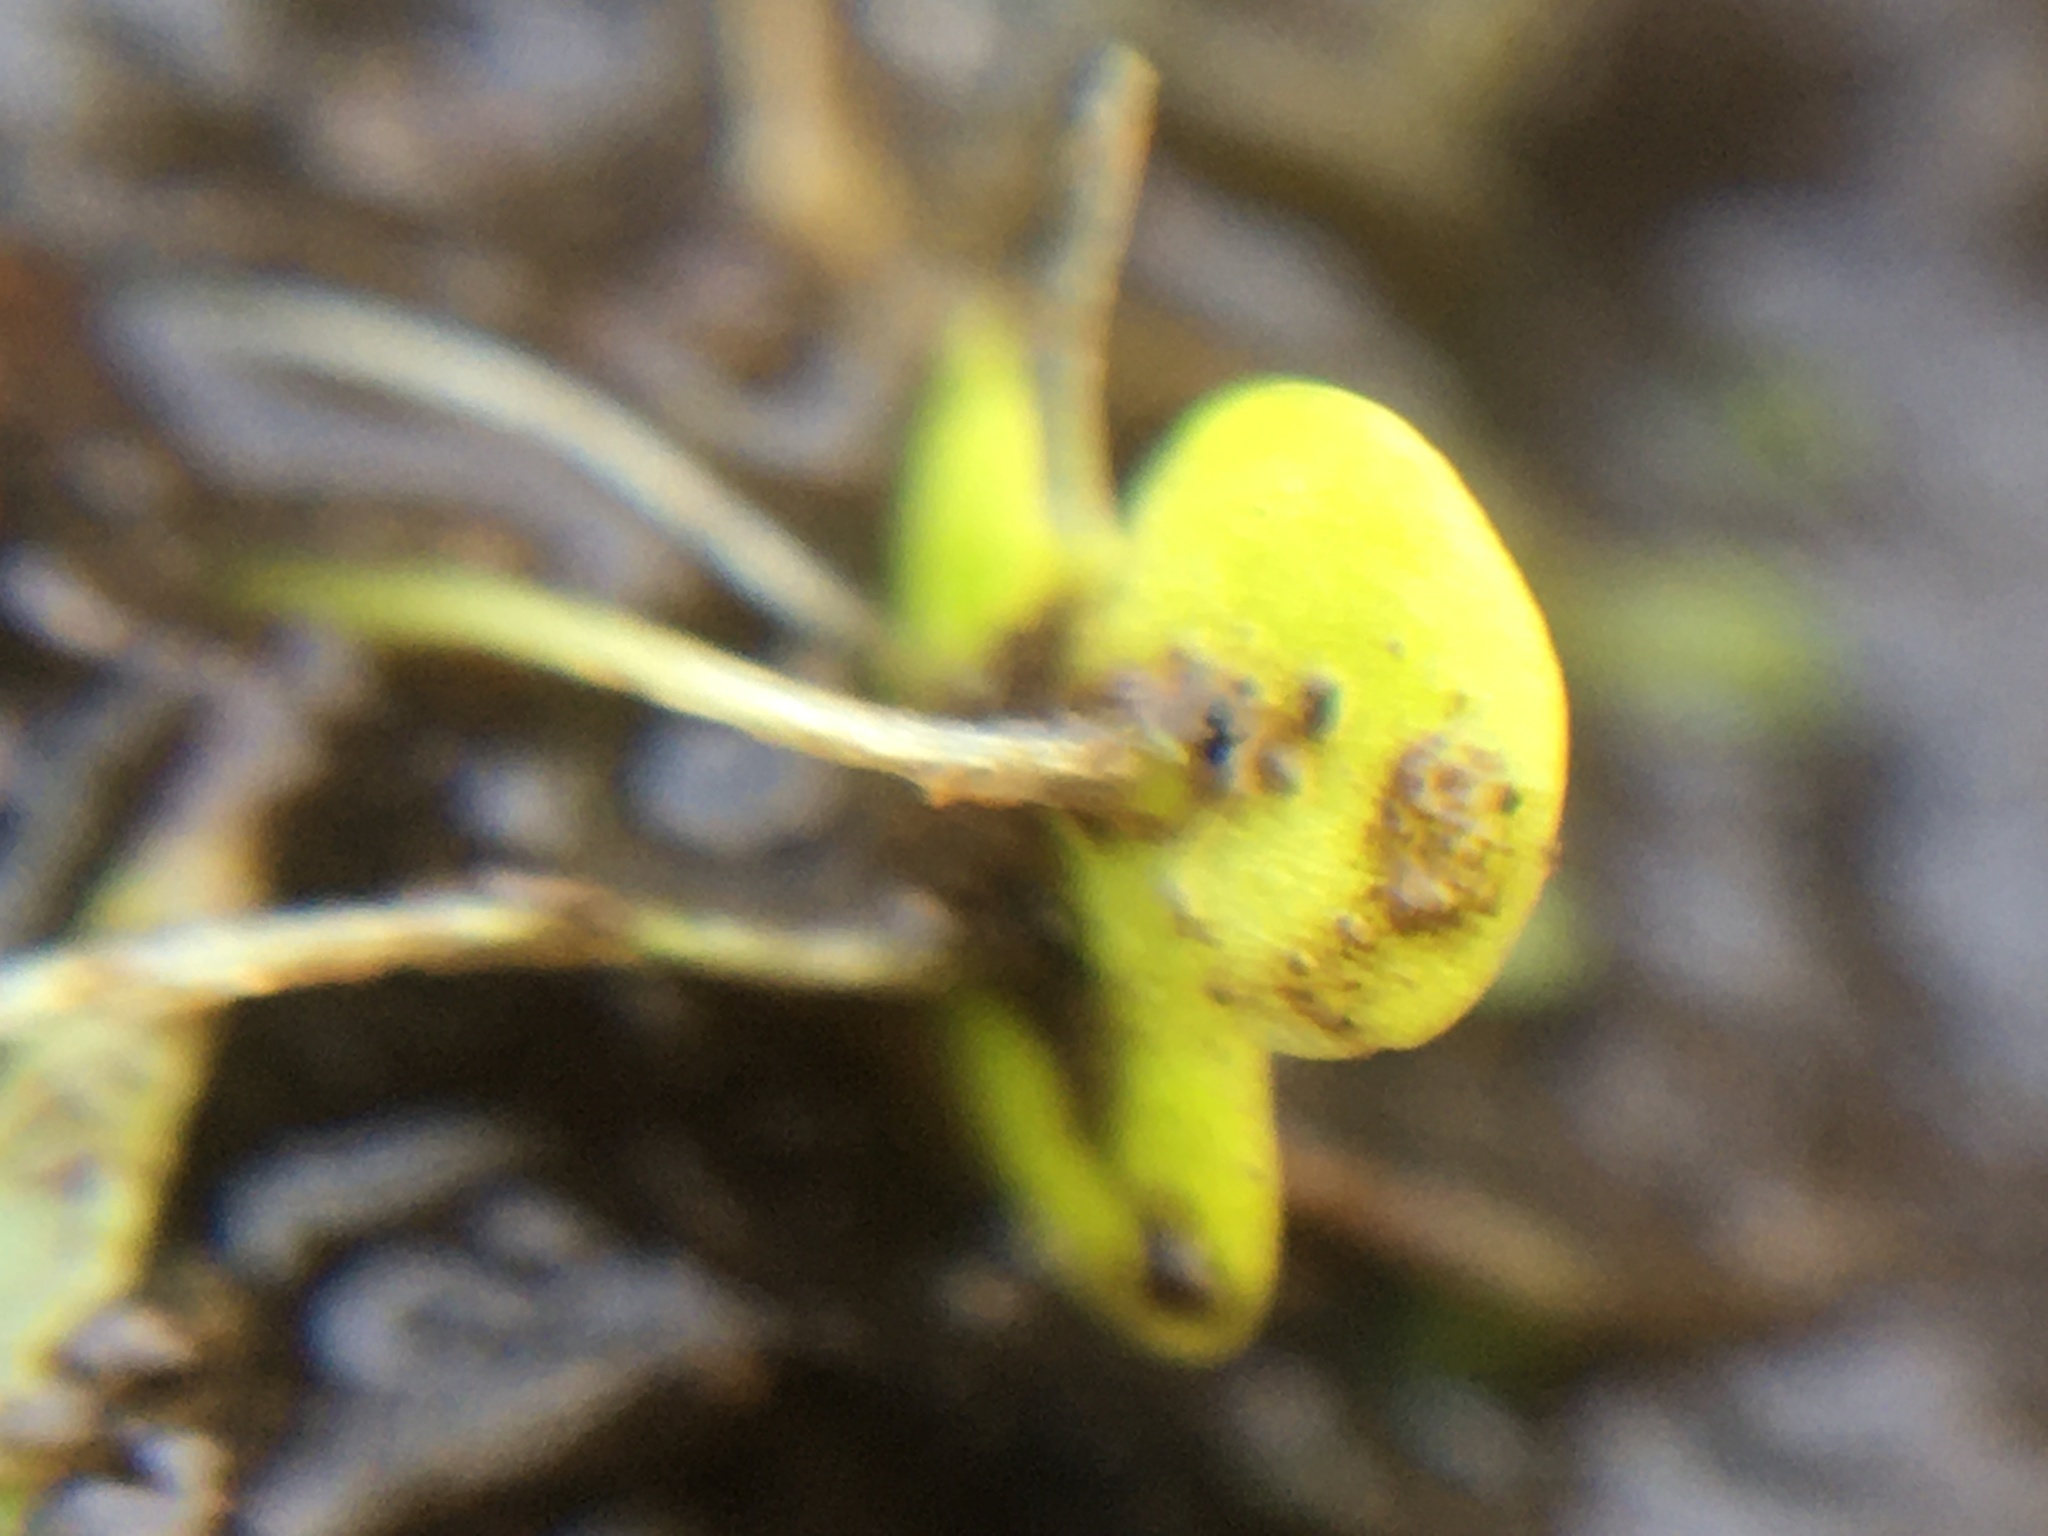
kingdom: Plantae
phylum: Tracheophyta
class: Liliopsida
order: Alismatales
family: Araceae
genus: Lemna
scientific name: Lemna minor
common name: Common duckweed
